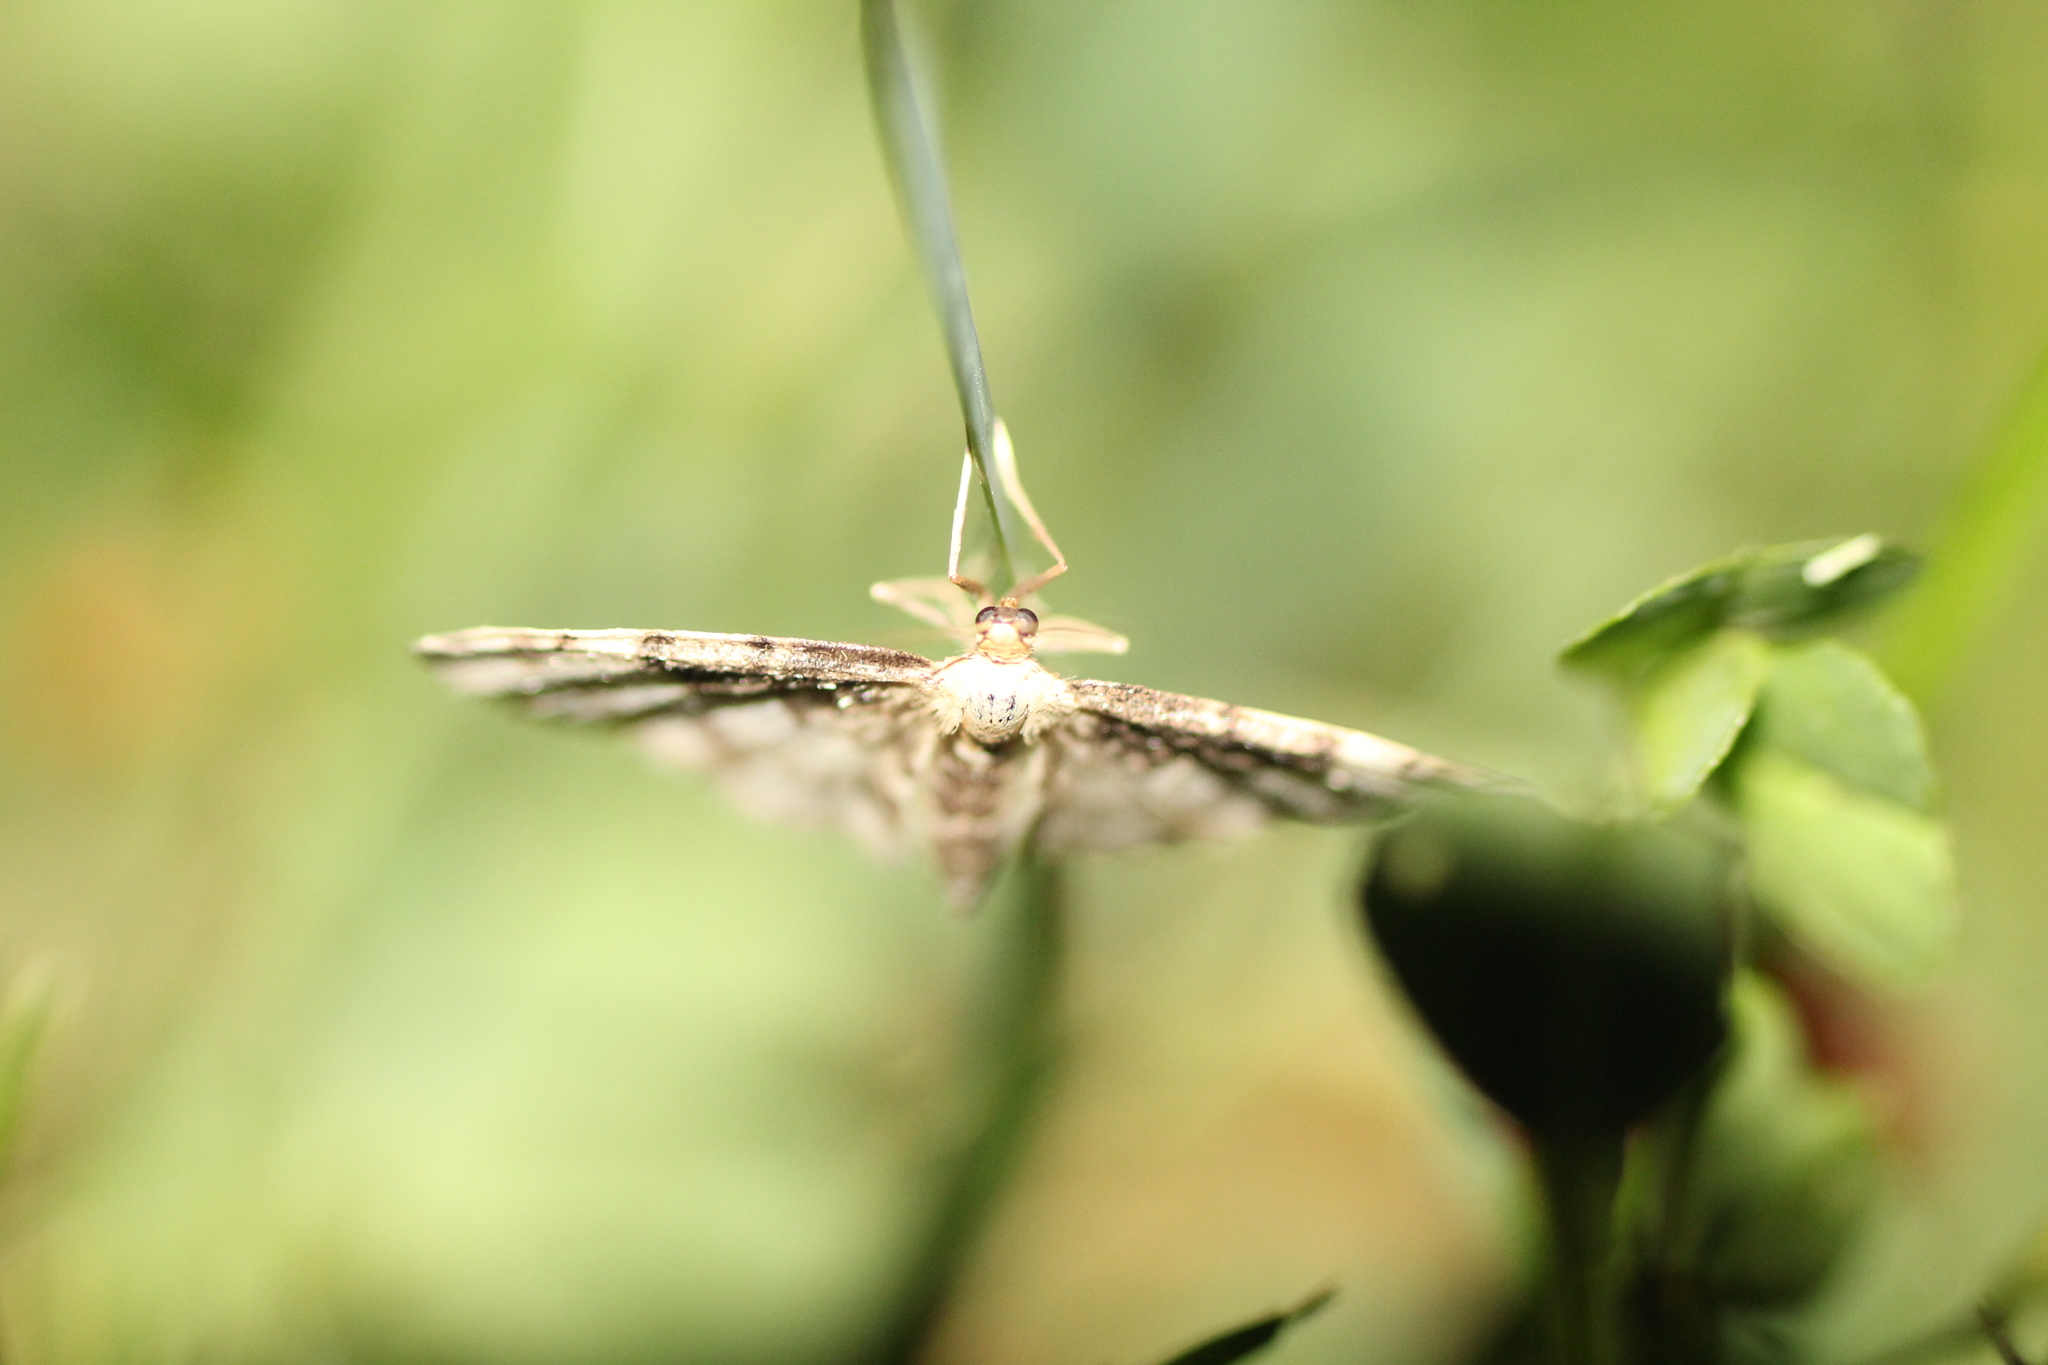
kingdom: Animalia
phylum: Arthropoda
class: Insecta
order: Lepidoptera
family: Geometridae
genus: Idaea
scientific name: Idaea filicata
